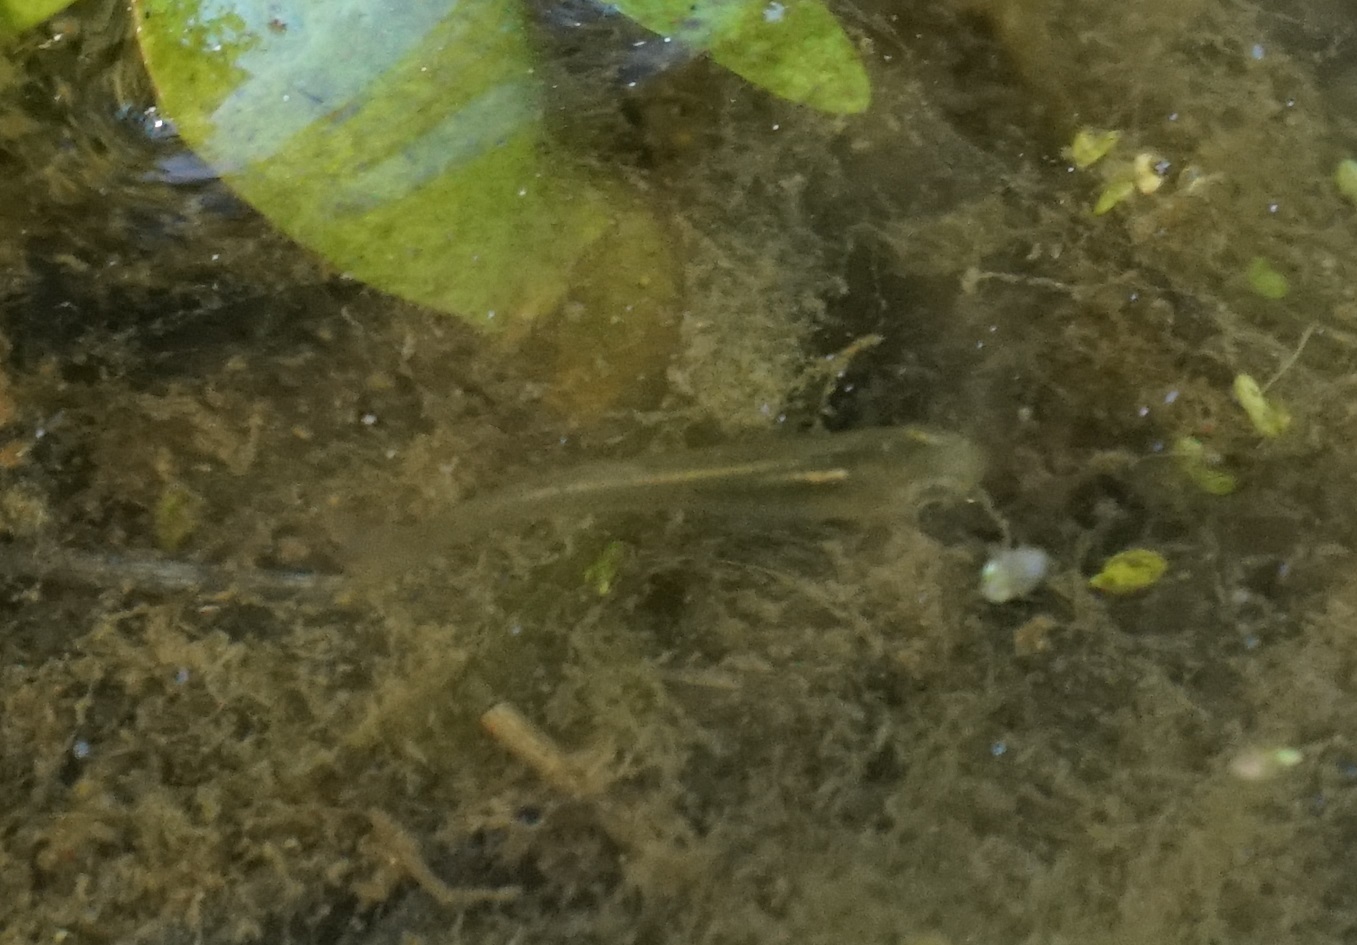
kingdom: Animalia
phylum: Chordata
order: Cyprinodontiformes
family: Poeciliidae
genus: Gambusia
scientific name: Gambusia holbrooki
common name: Eastern mosquitofish
